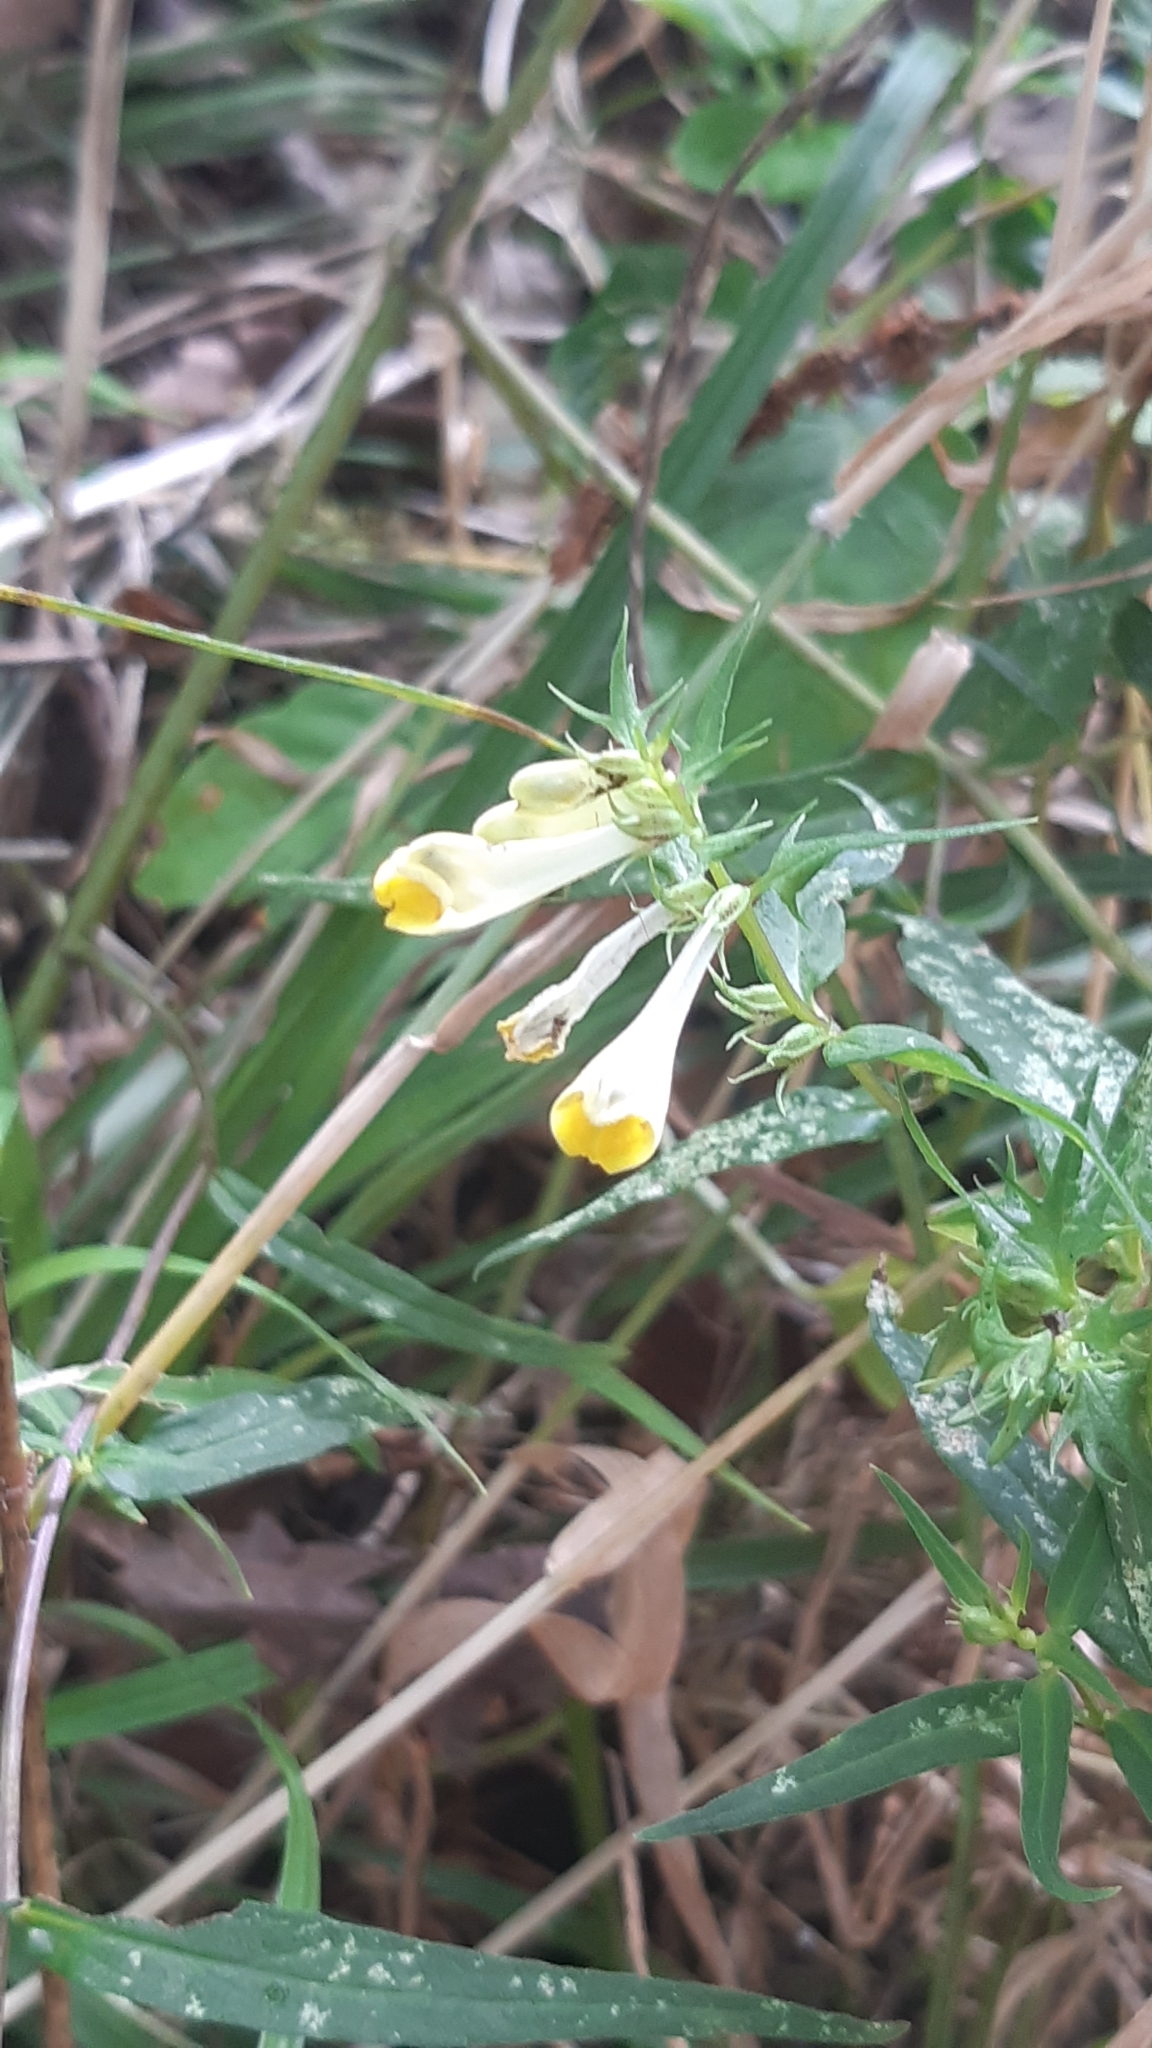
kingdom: Plantae
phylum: Tracheophyta
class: Magnoliopsida
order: Lamiales
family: Orobanchaceae
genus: Melampyrum
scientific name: Melampyrum pratense
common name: Common cow-wheat
